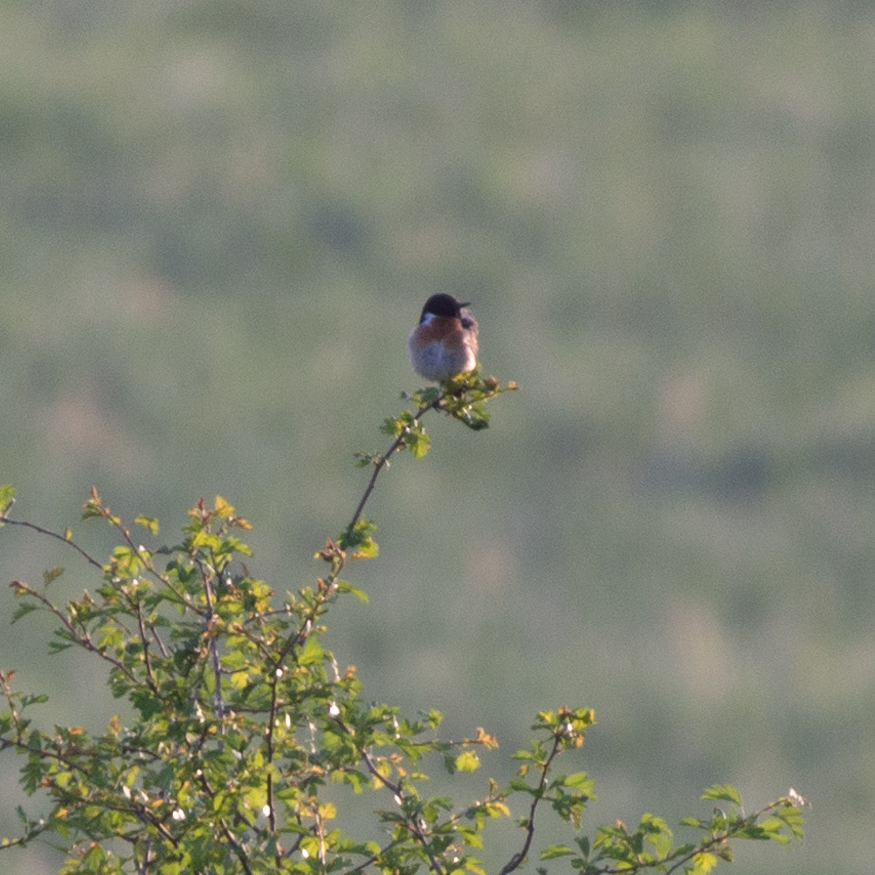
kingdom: Animalia
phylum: Chordata
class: Aves
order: Passeriformes
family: Muscicapidae
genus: Saxicola
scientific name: Saxicola rubicola
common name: European stonechat
